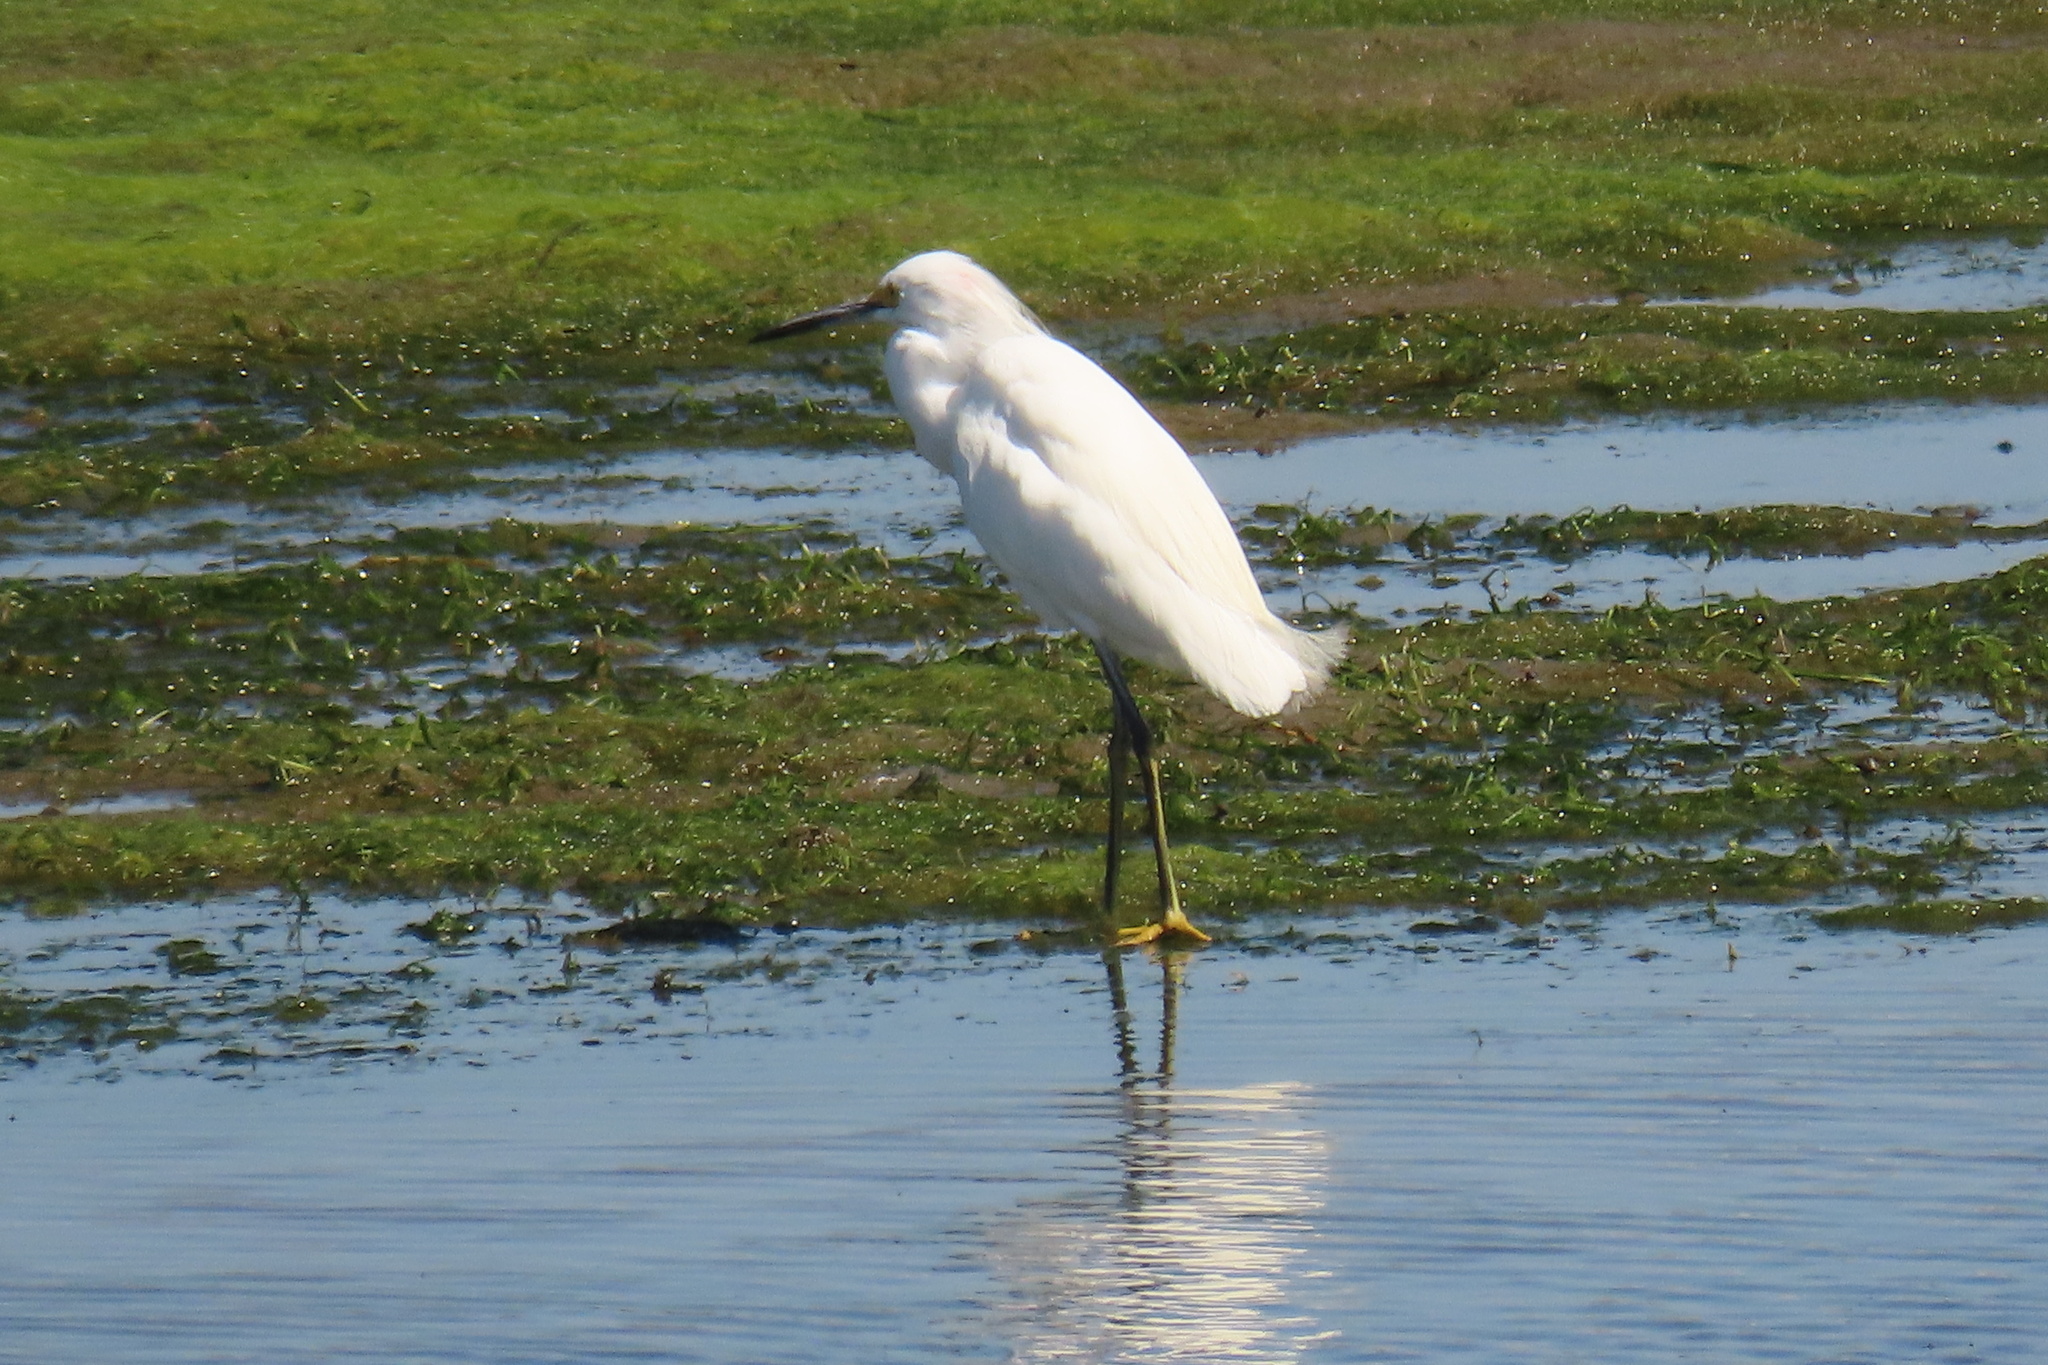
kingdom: Animalia
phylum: Chordata
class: Aves
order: Pelecaniformes
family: Ardeidae
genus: Egretta
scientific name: Egretta thula
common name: Snowy egret
